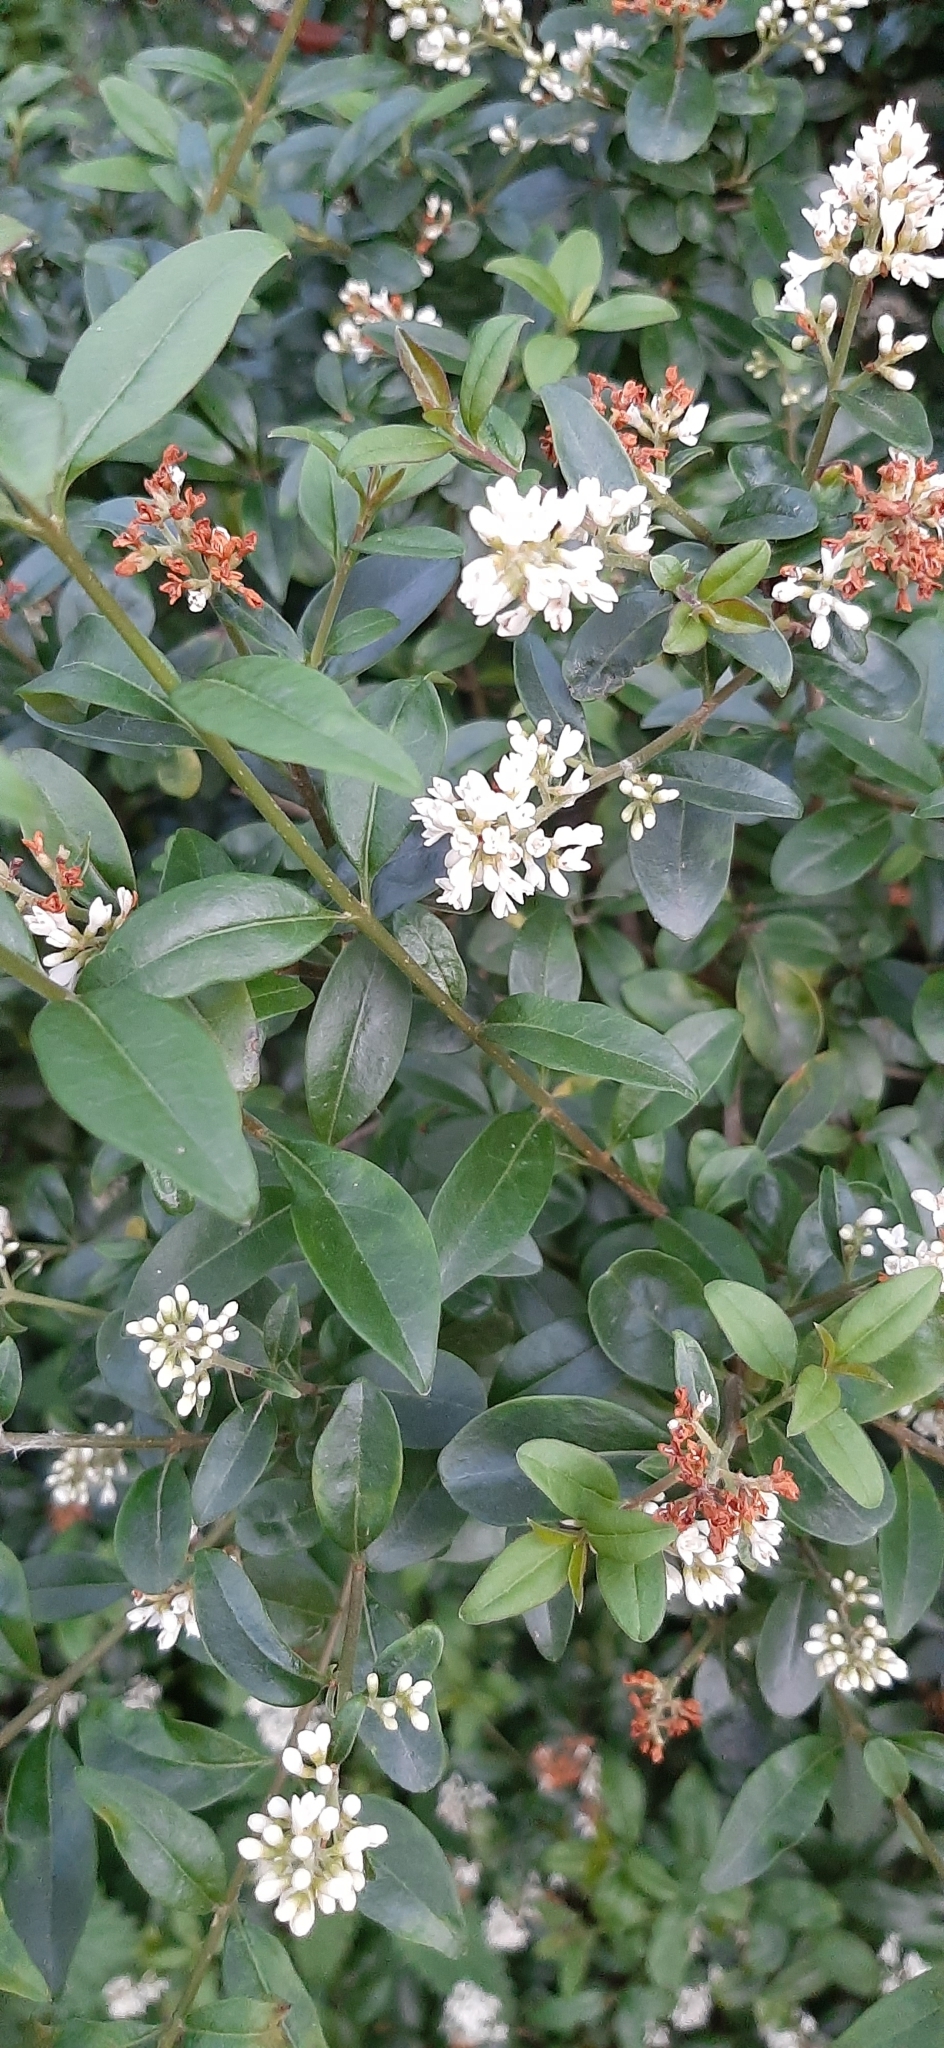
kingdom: Plantae
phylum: Tracheophyta
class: Magnoliopsida
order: Lamiales
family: Oleaceae
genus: Ligustrum
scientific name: Ligustrum vulgare
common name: Wild privet
